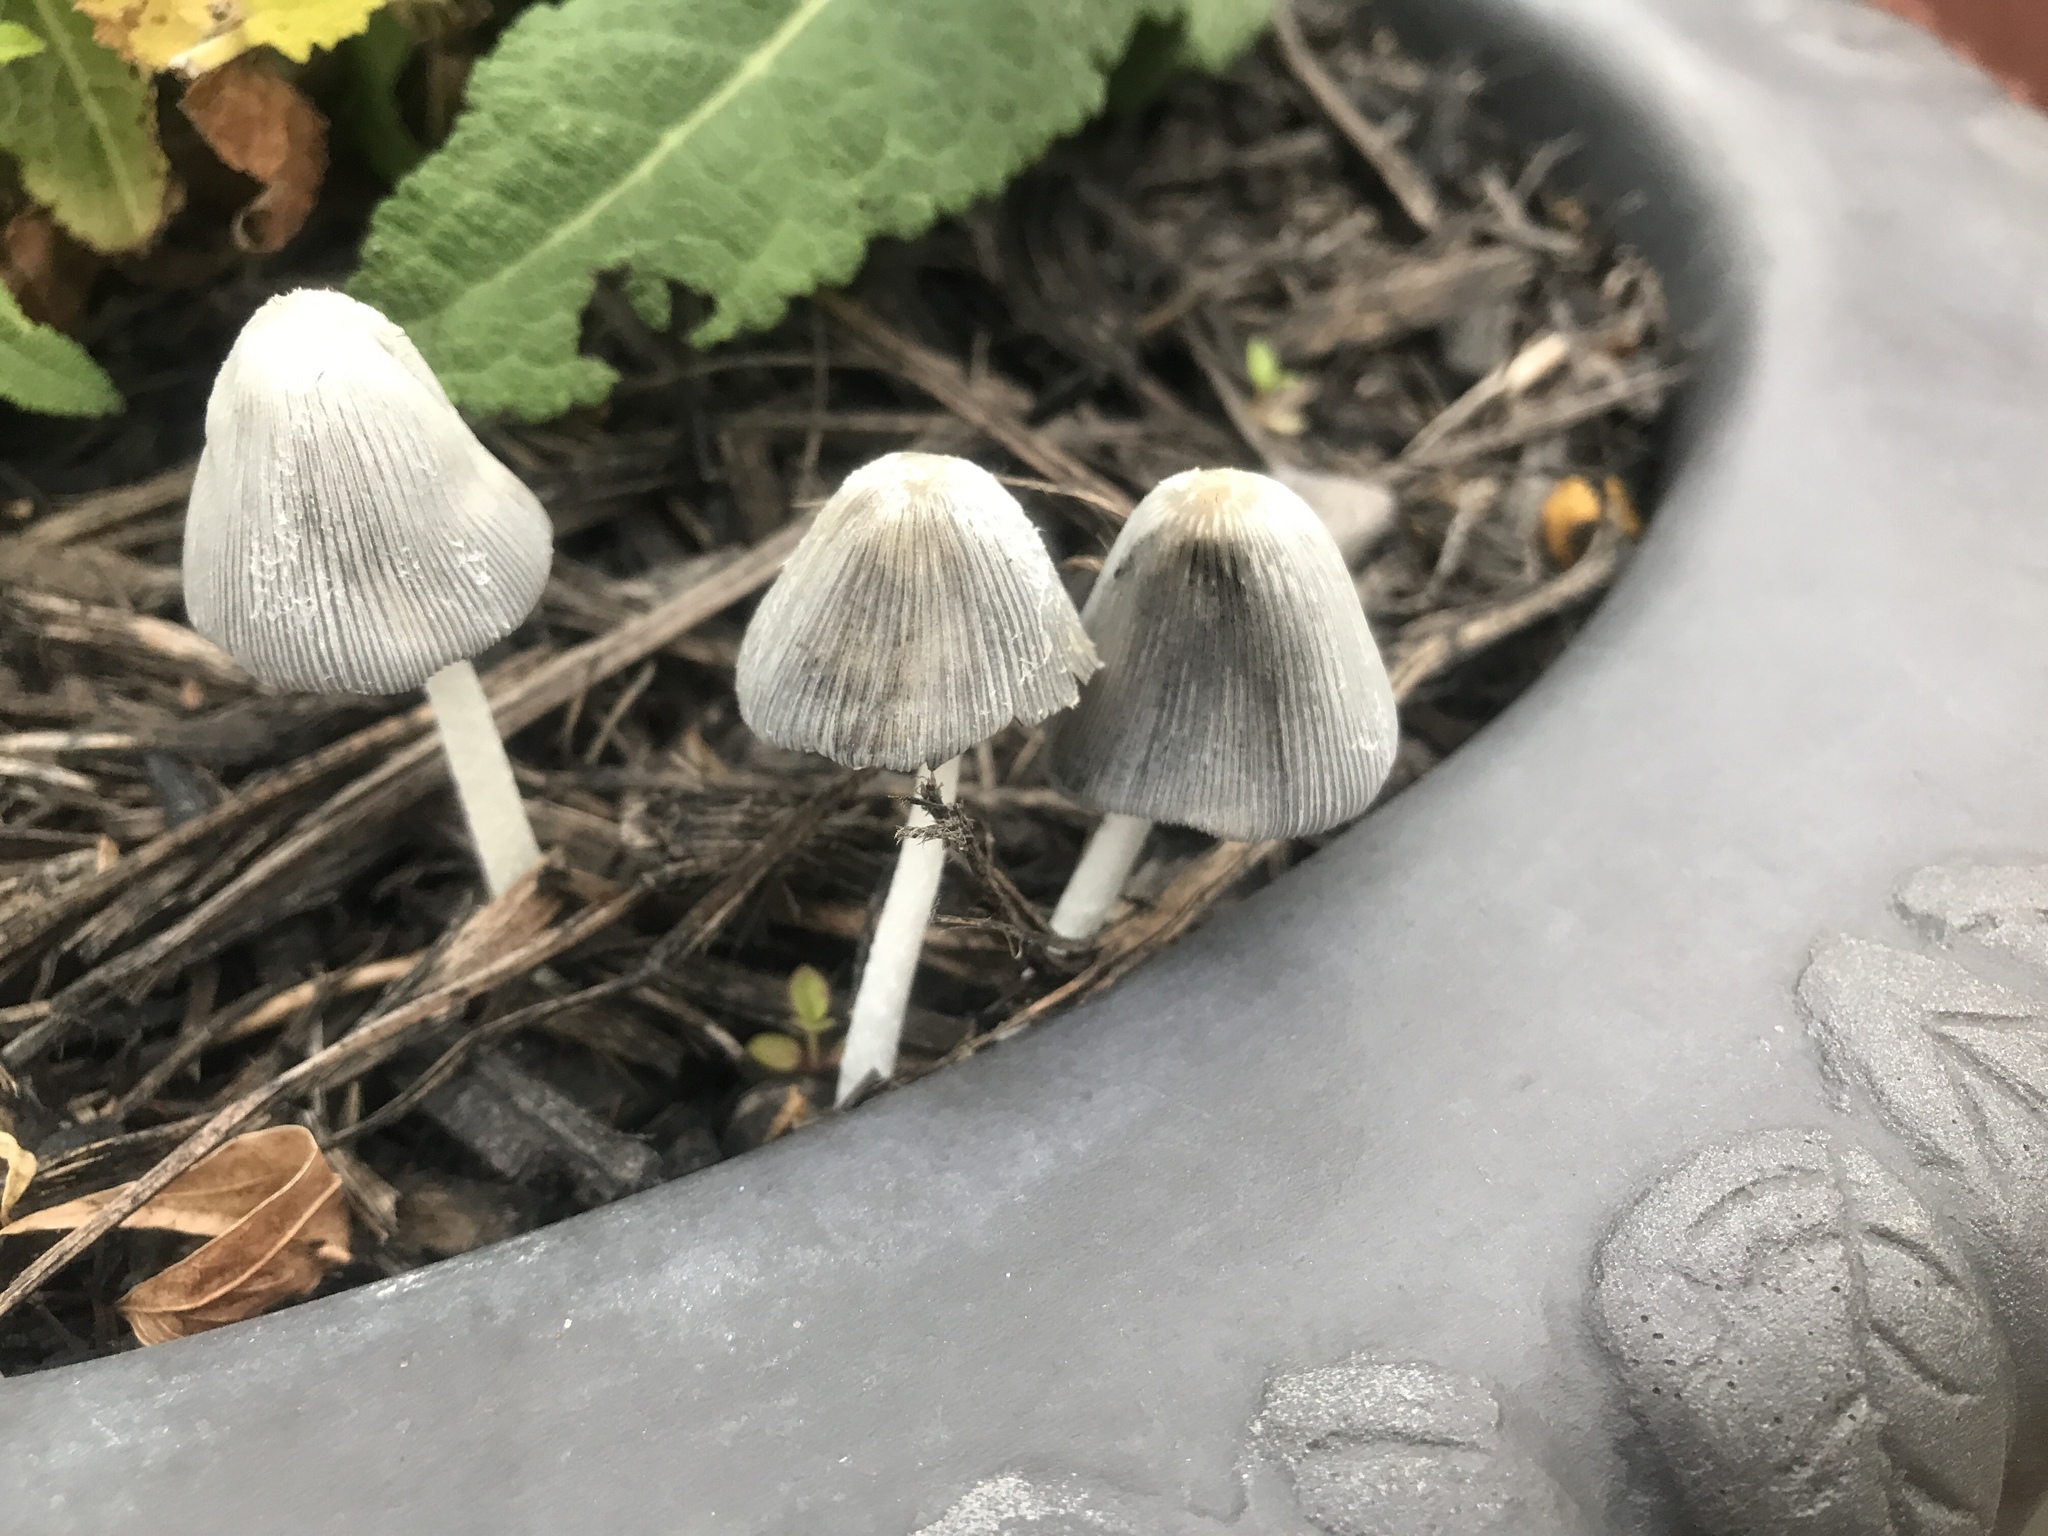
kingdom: Fungi
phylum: Basidiomycota
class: Agaricomycetes
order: Agaricales
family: Psathyrellaceae
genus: Coprinopsis
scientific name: Coprinopsis lagopus
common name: Hare'sfoot inkcap
